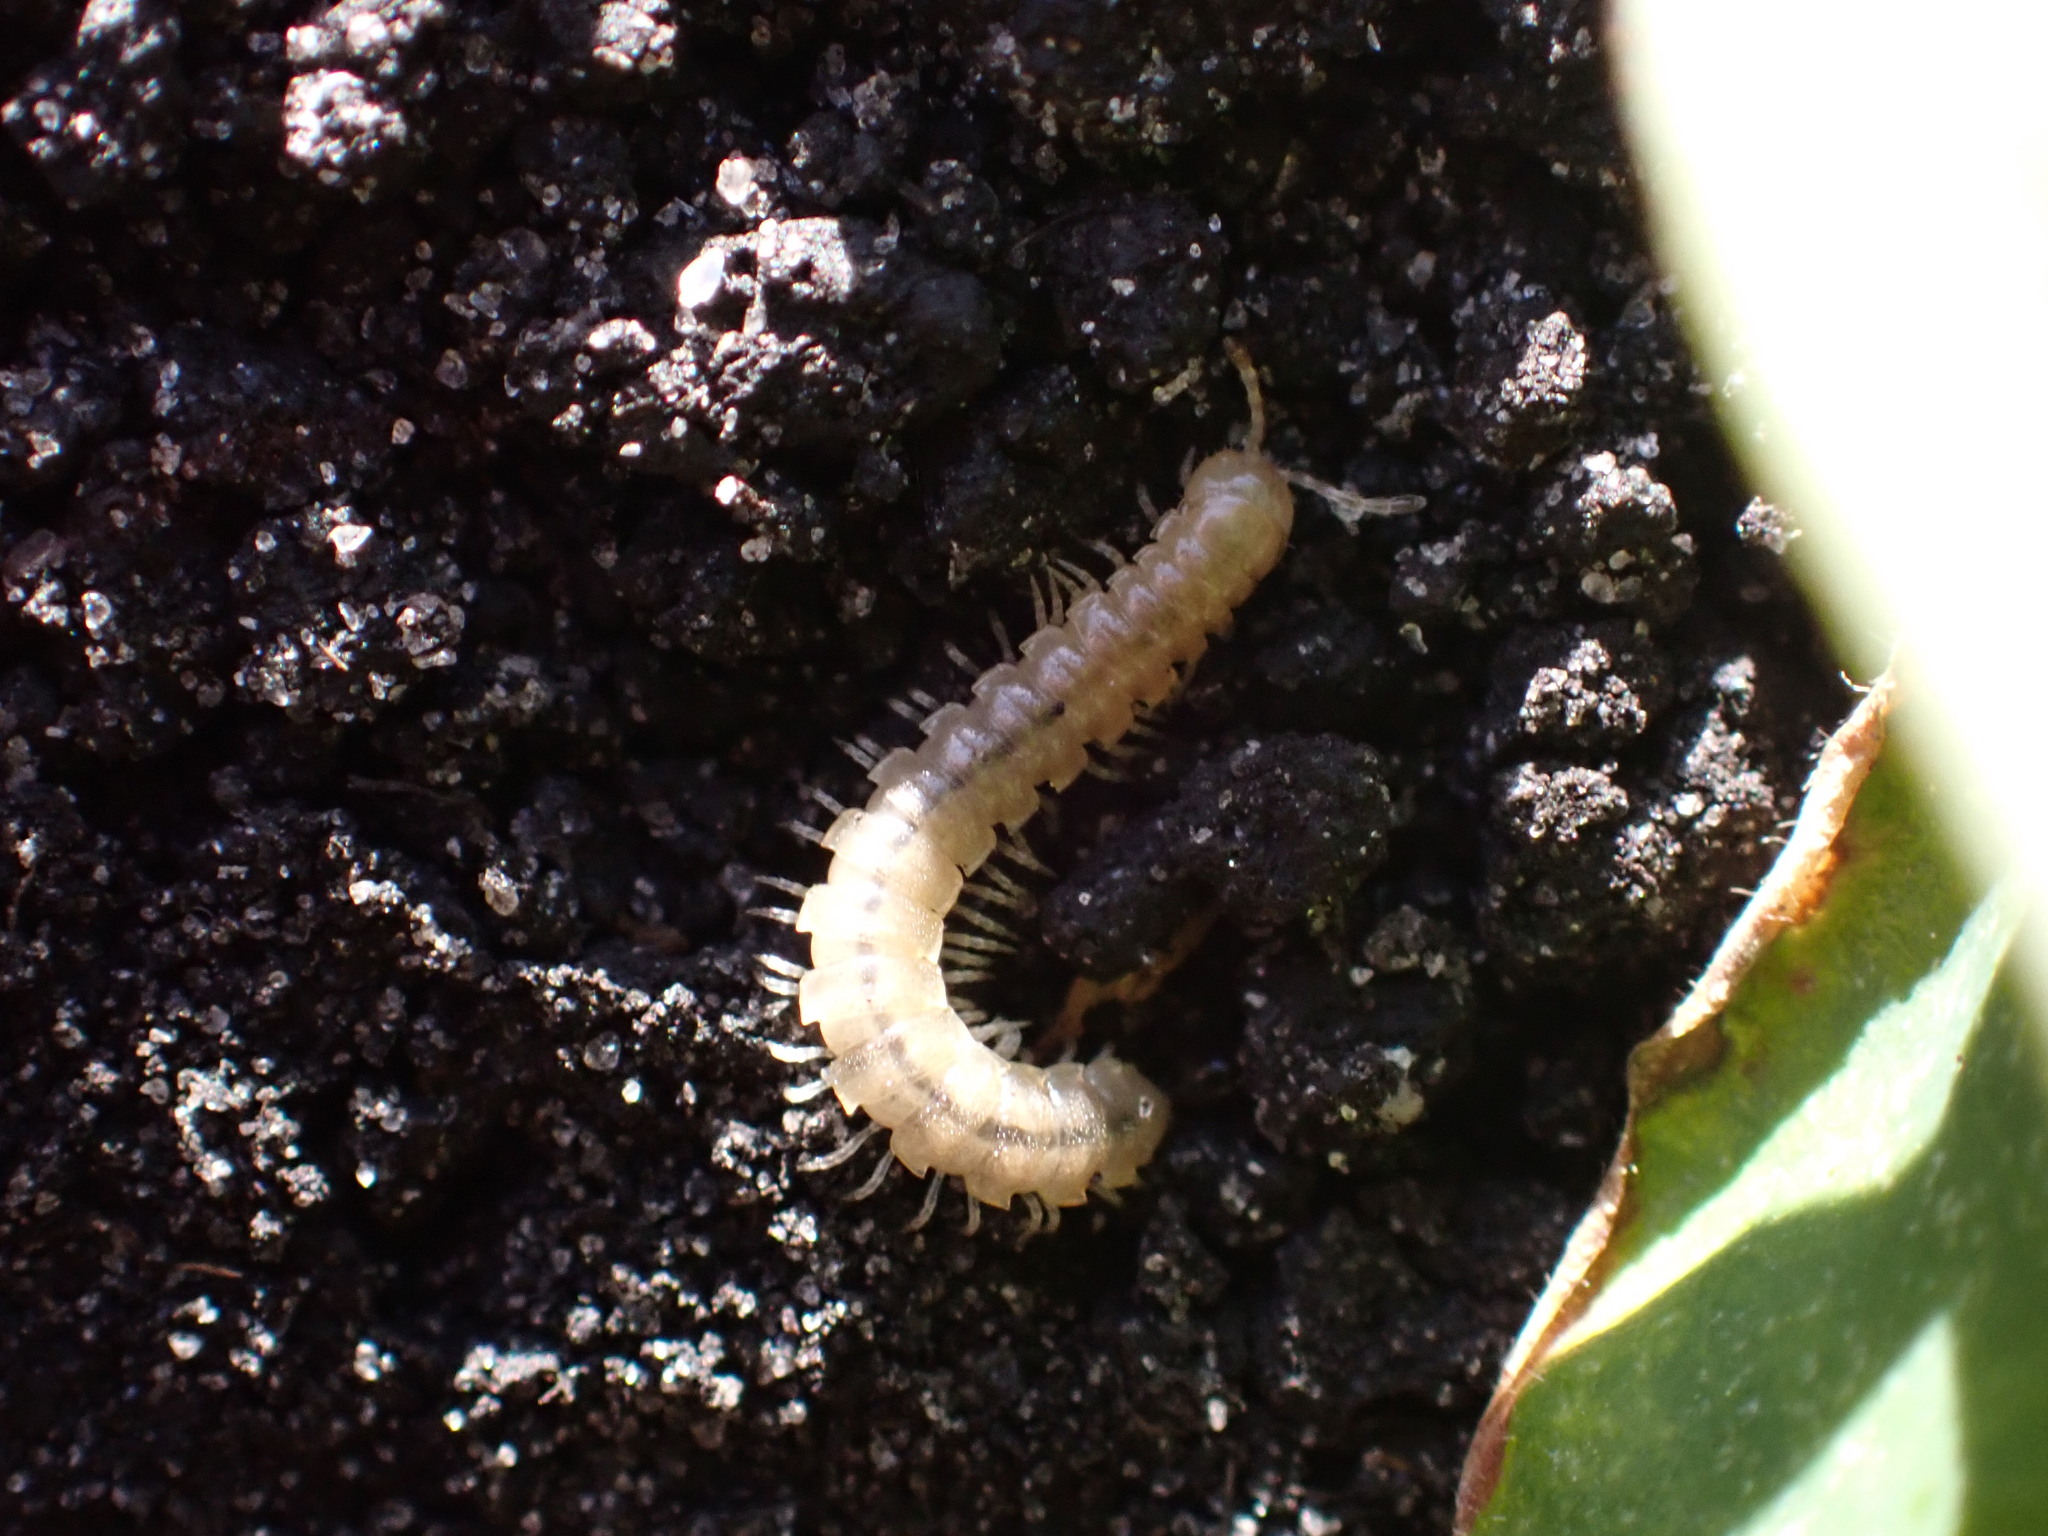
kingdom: Animalia
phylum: Arthropoda
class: Diplopoda
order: Polydesmida
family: Paradoxosomatidae
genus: Oxidus
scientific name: Oxidus gracilis
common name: Greenhouse millipede
